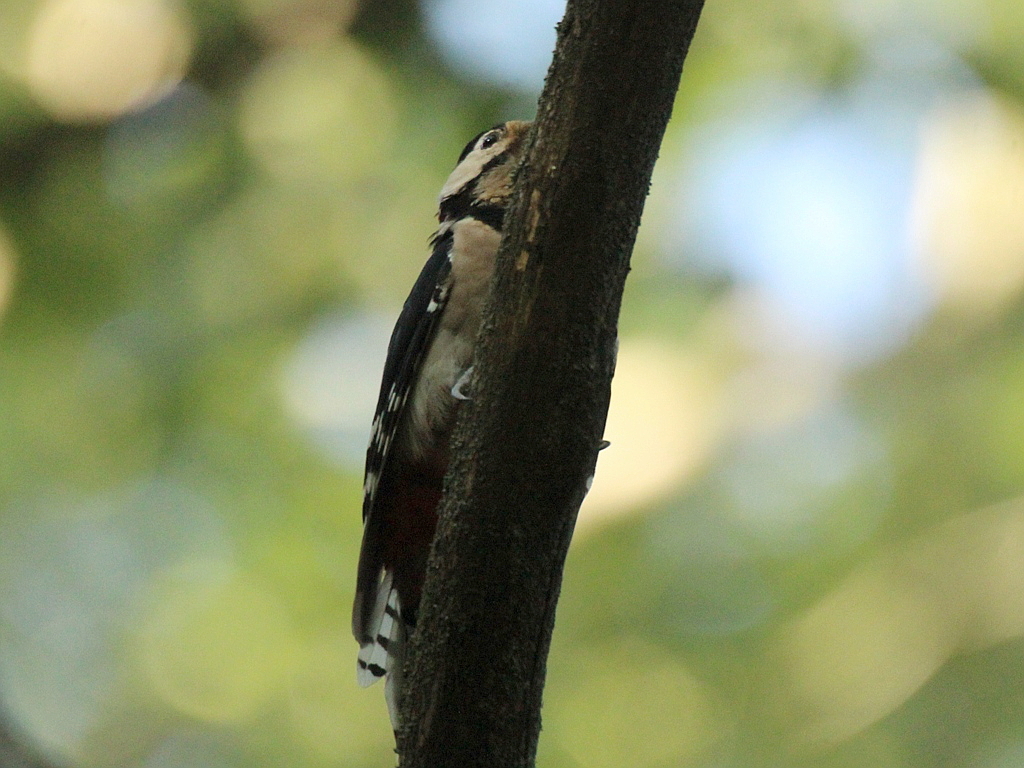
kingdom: Animalia
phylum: Chordata
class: Aves
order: Piciformes
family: Picidae
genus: Dendrocopos
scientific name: Dendrocopos major
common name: Great spotted woodpecker
